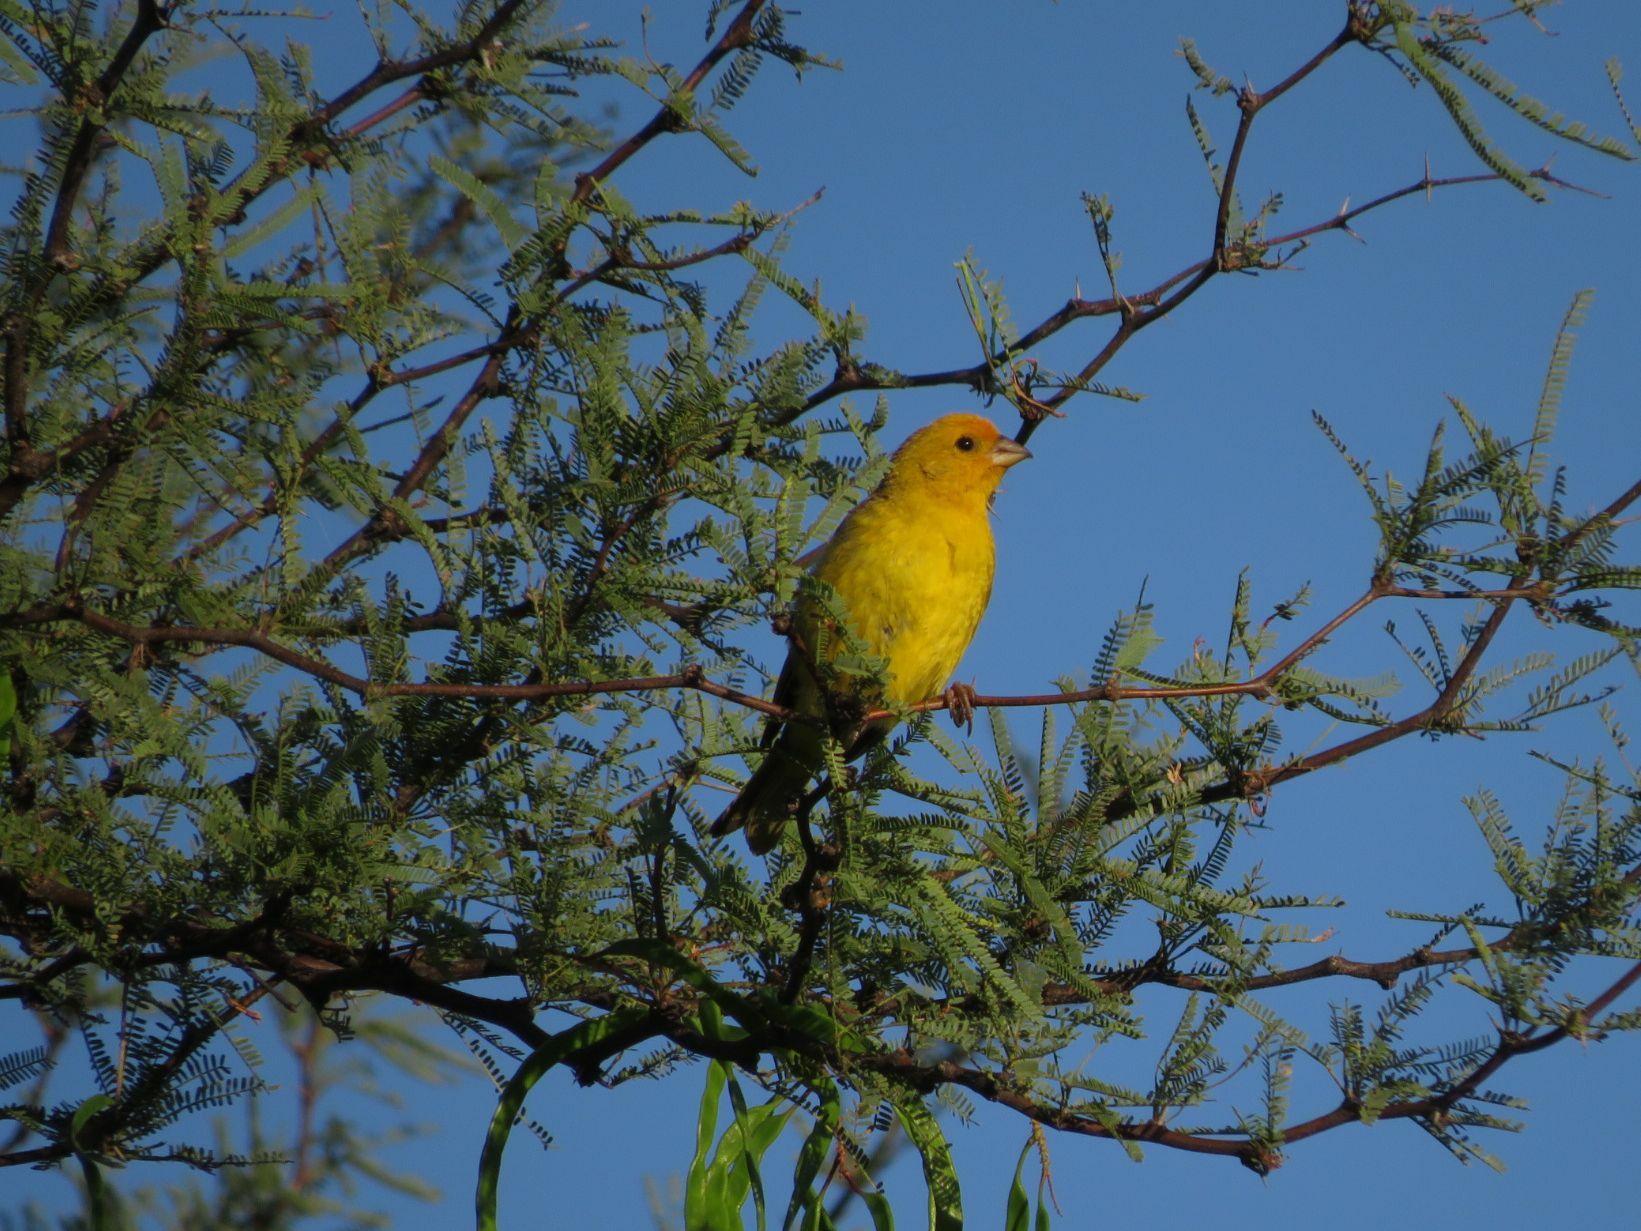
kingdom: Animalia
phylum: Chordata
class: Aves
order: Passeriformes
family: Thraupidae
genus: Sicalis
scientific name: Sicalis flaveola
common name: Saffron finch
